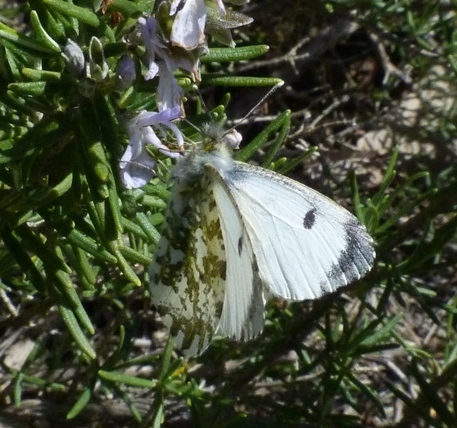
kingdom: Animalia
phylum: Arthropoda
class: Insecta
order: Lepidoptera
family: Pieridae
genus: Anthocharis
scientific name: Anthocharis cardamines
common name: Orange-tip
